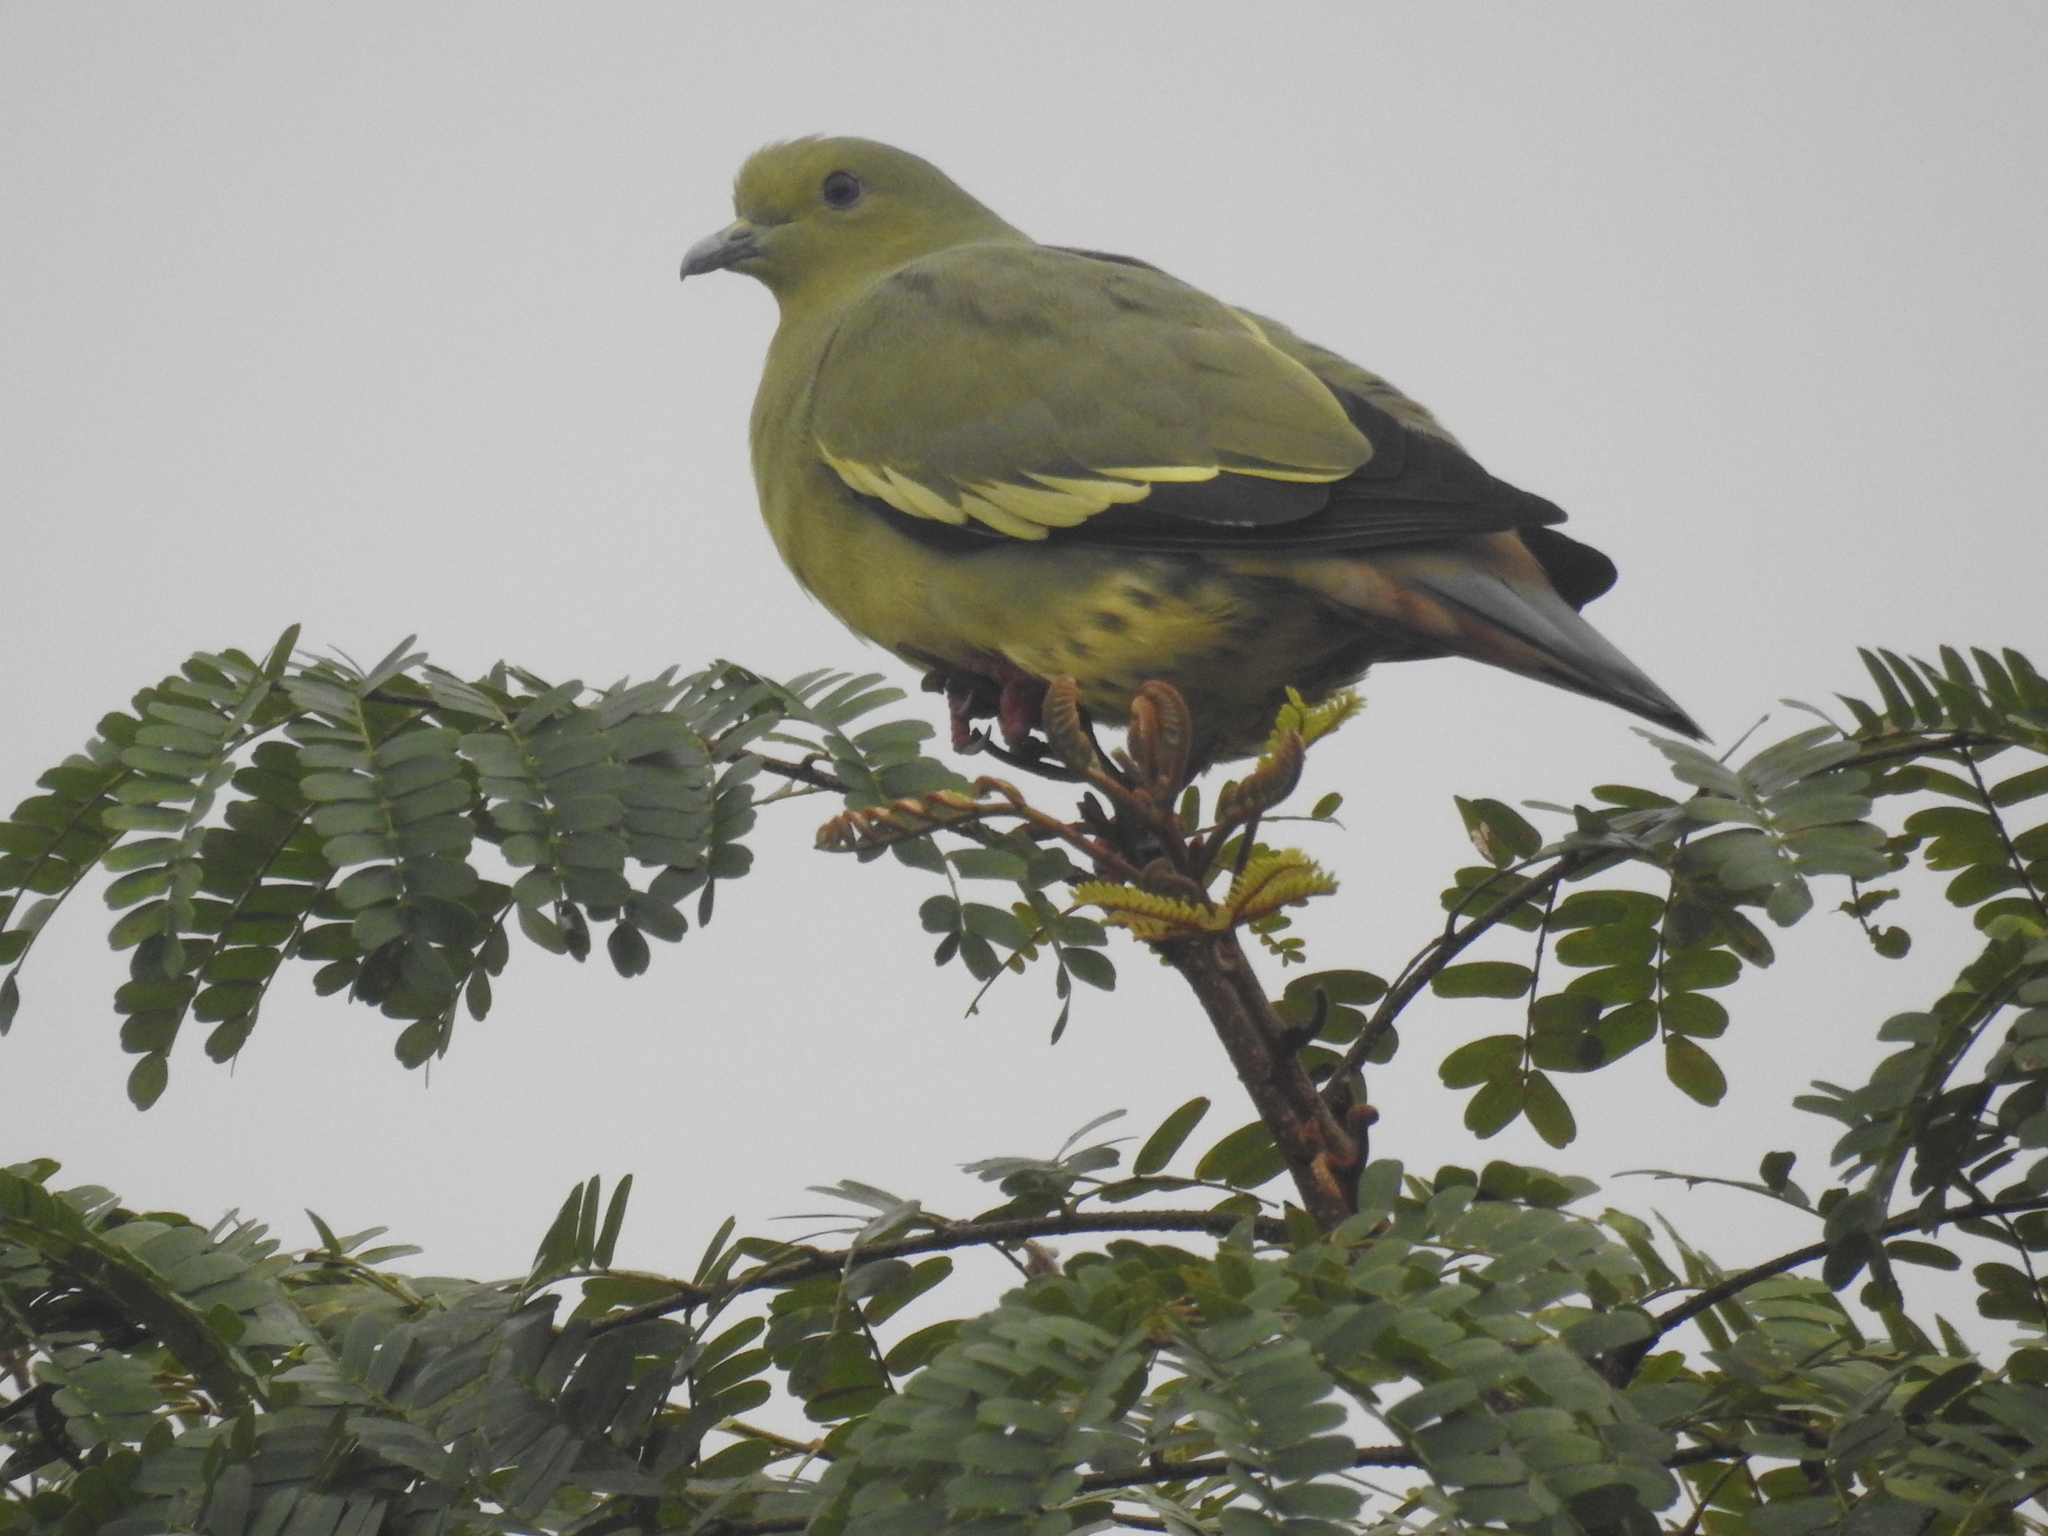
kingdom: Animalia
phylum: Chordata
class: Aves
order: Columbiformes
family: Columbidae
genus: Treron
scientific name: Treron vernans
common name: Pink-necked green pigeon
